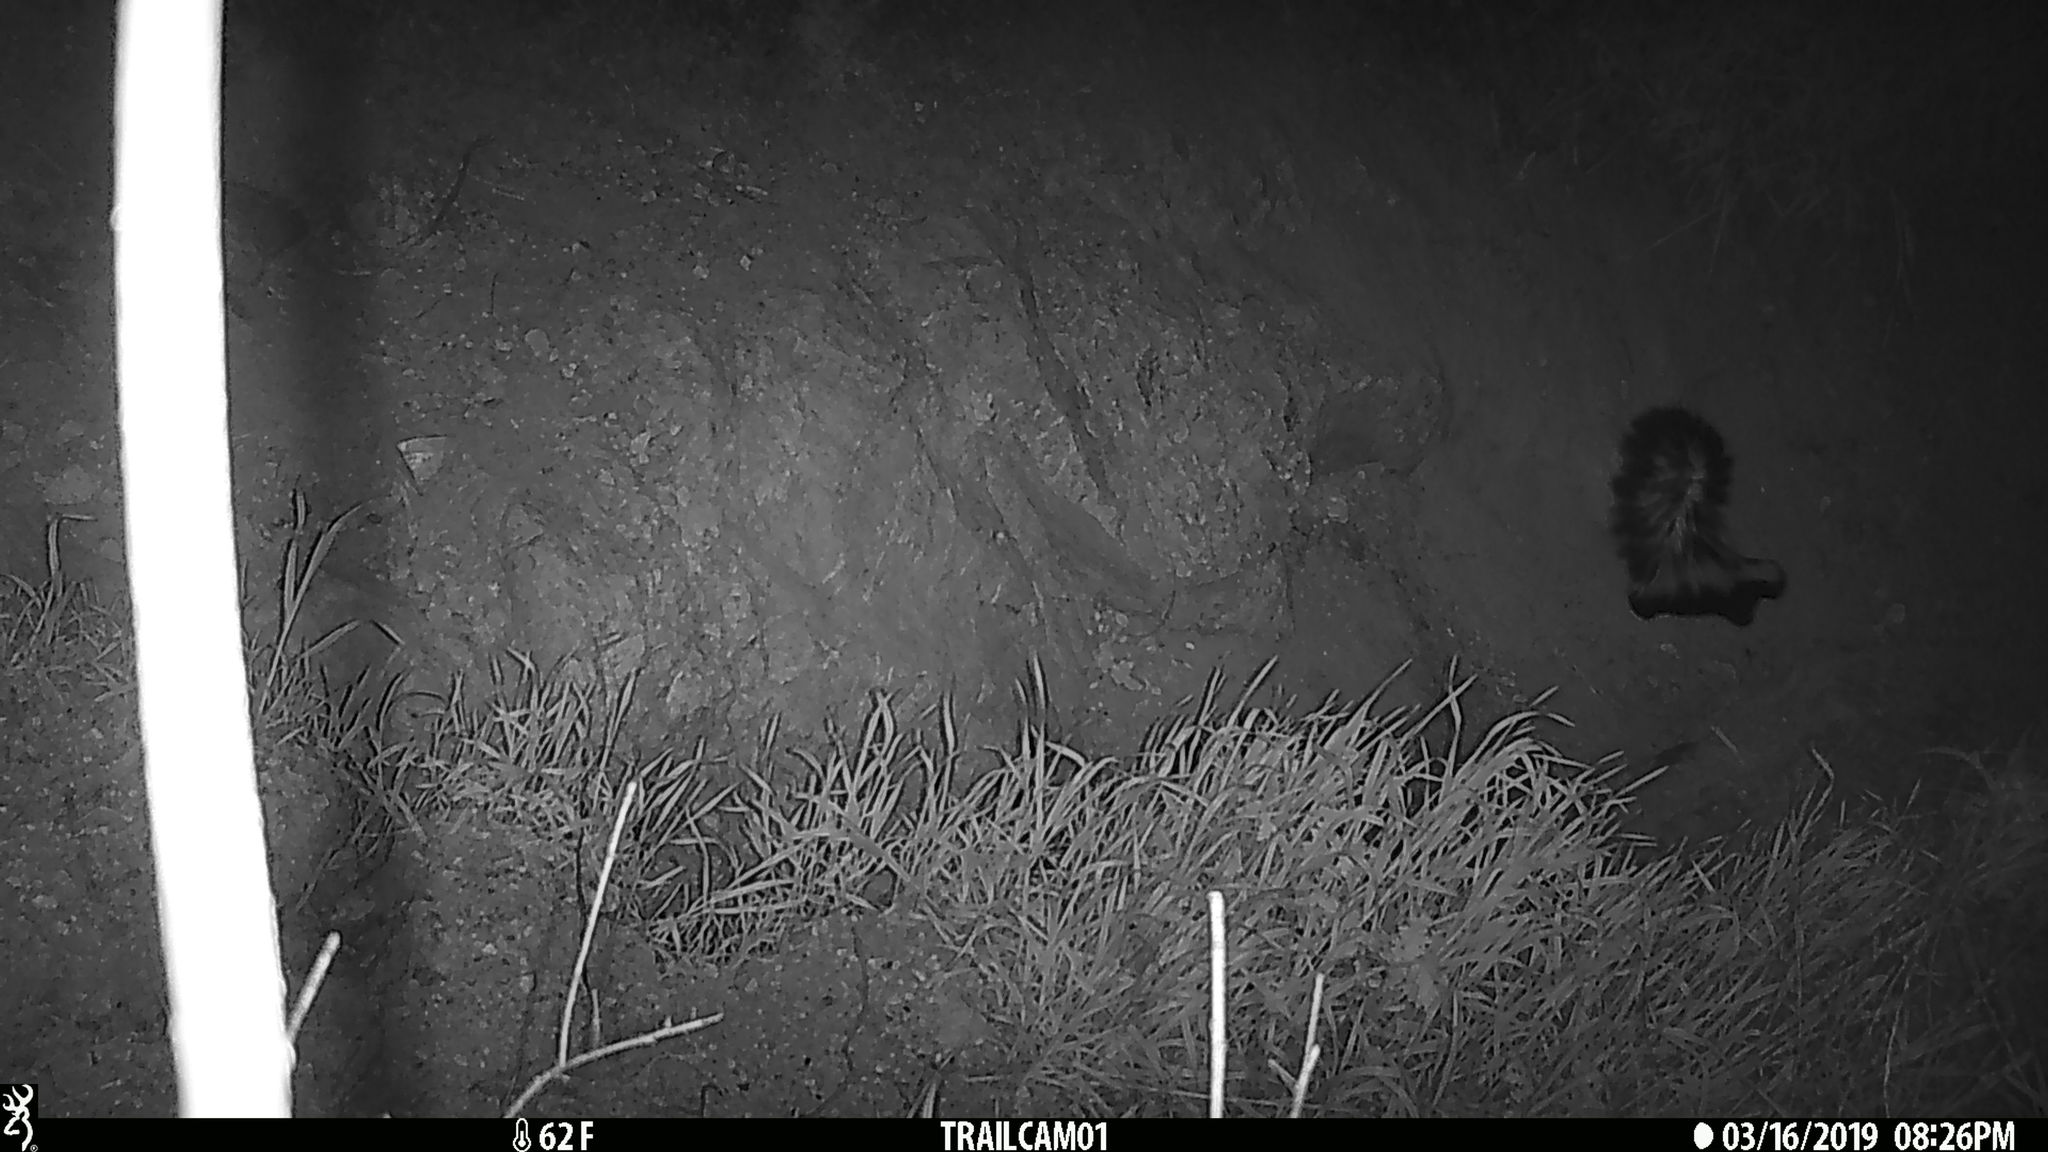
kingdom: Animalia
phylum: Chordata
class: Mammalia
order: Carnivora
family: Mephitidae
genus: Mephitis
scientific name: Mephitis mephitis
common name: Striped skunk
